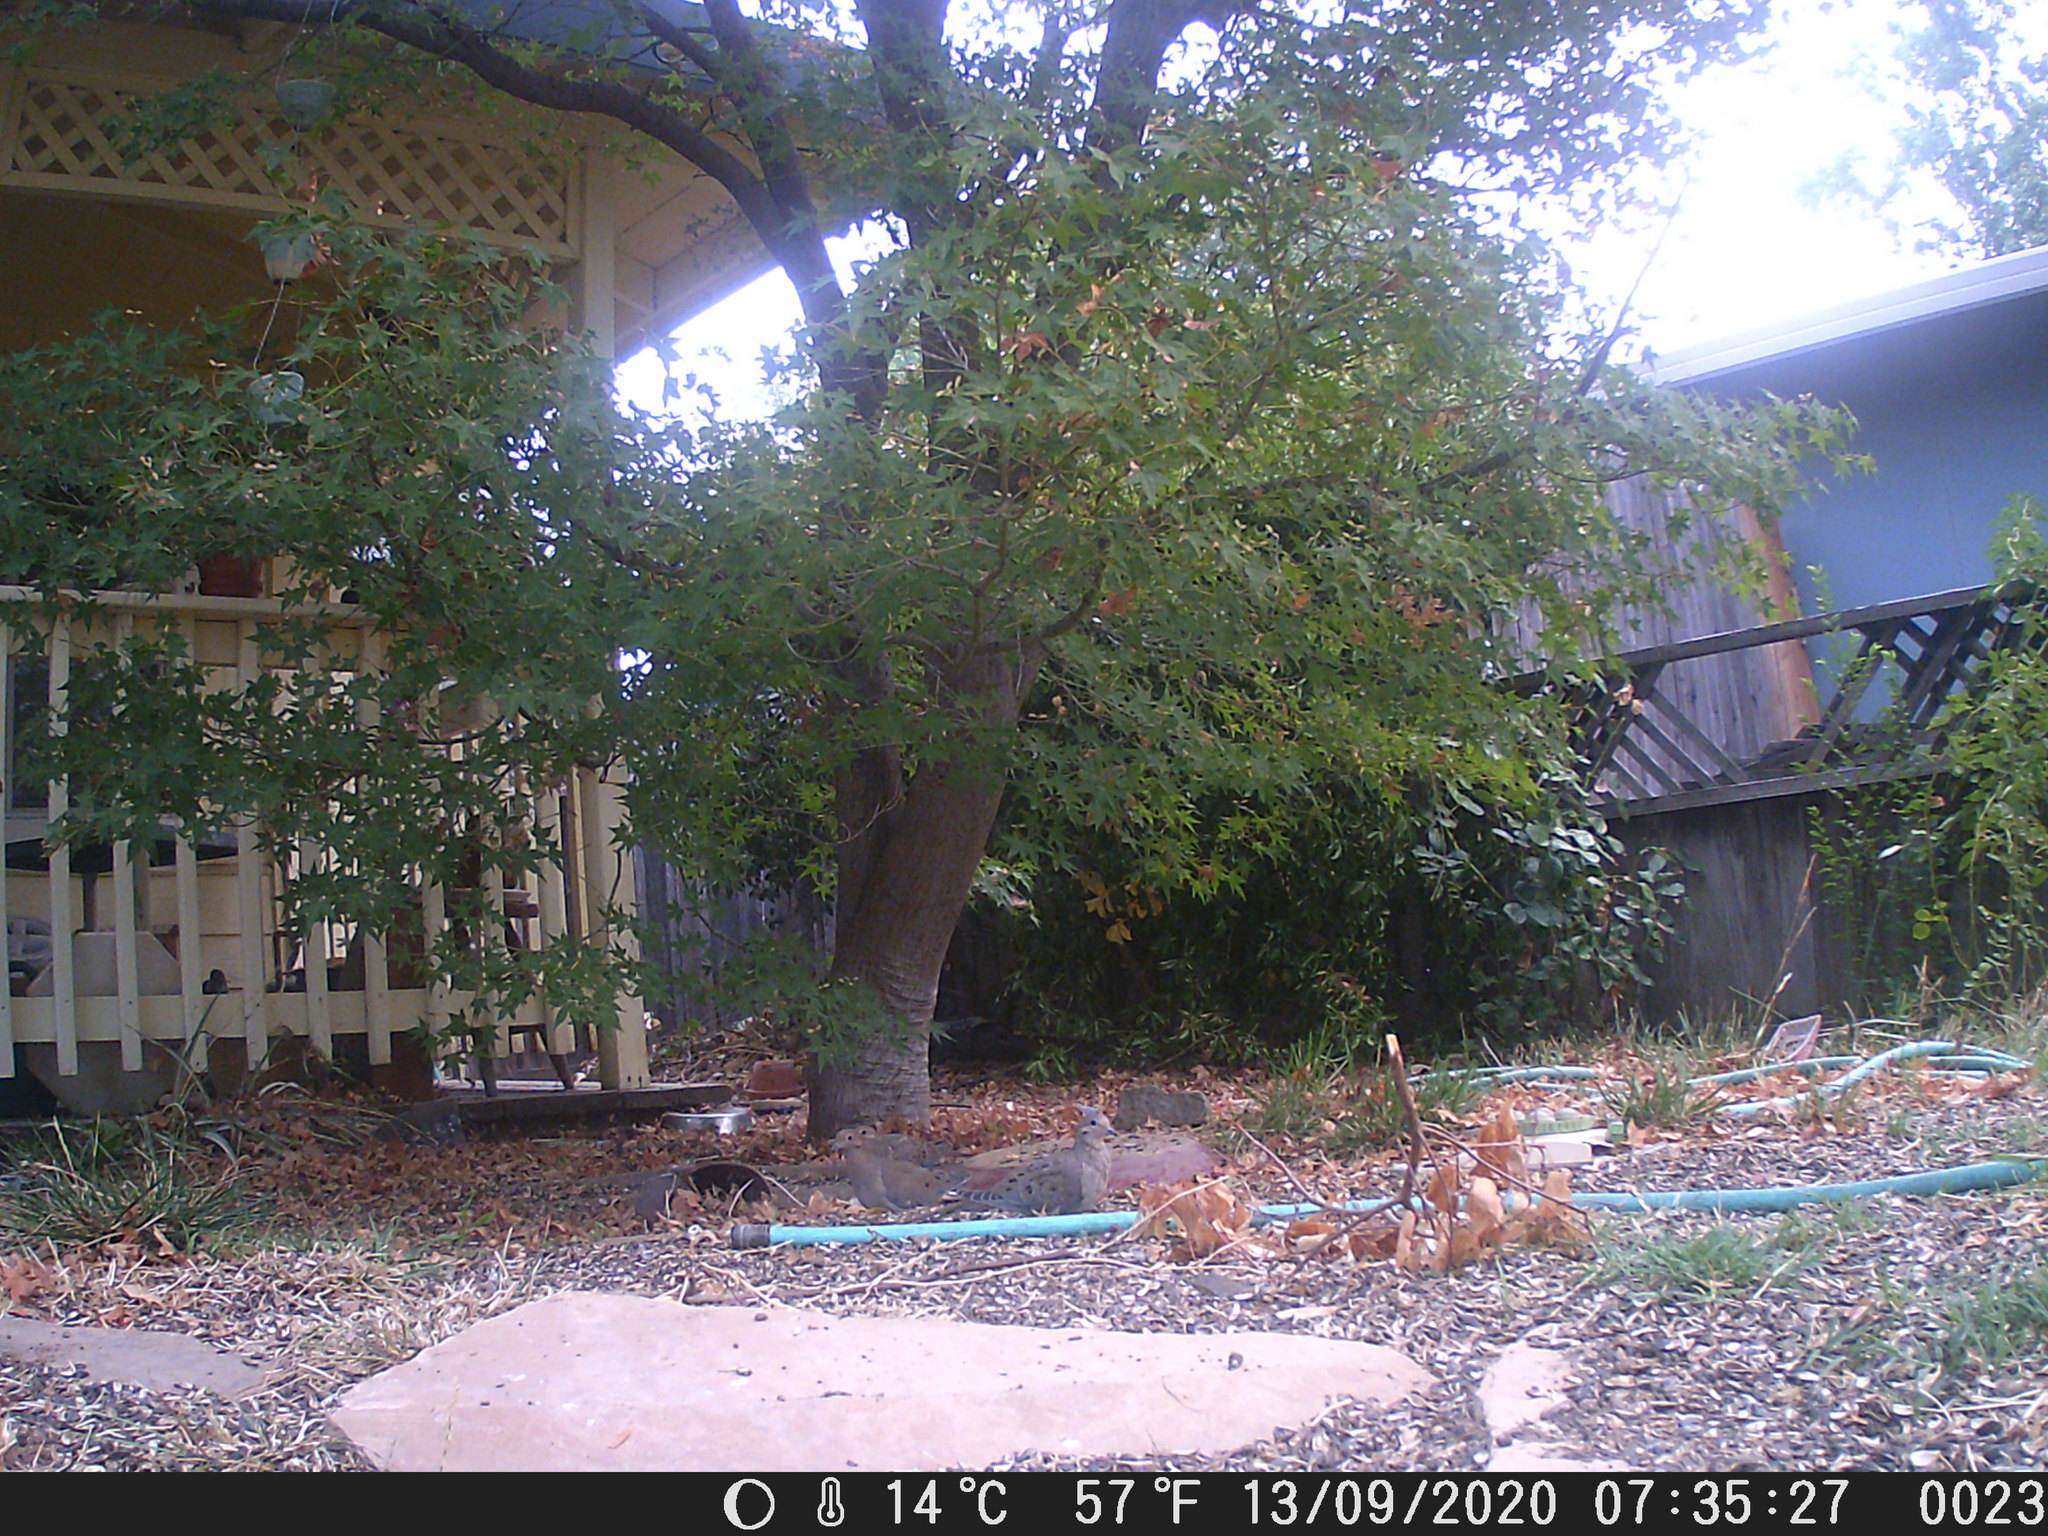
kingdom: Animalia
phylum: Chordata
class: Aves
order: Columbiformes
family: Columbidae
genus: Zenaida
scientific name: Zenaida macroura
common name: Mourning dove
